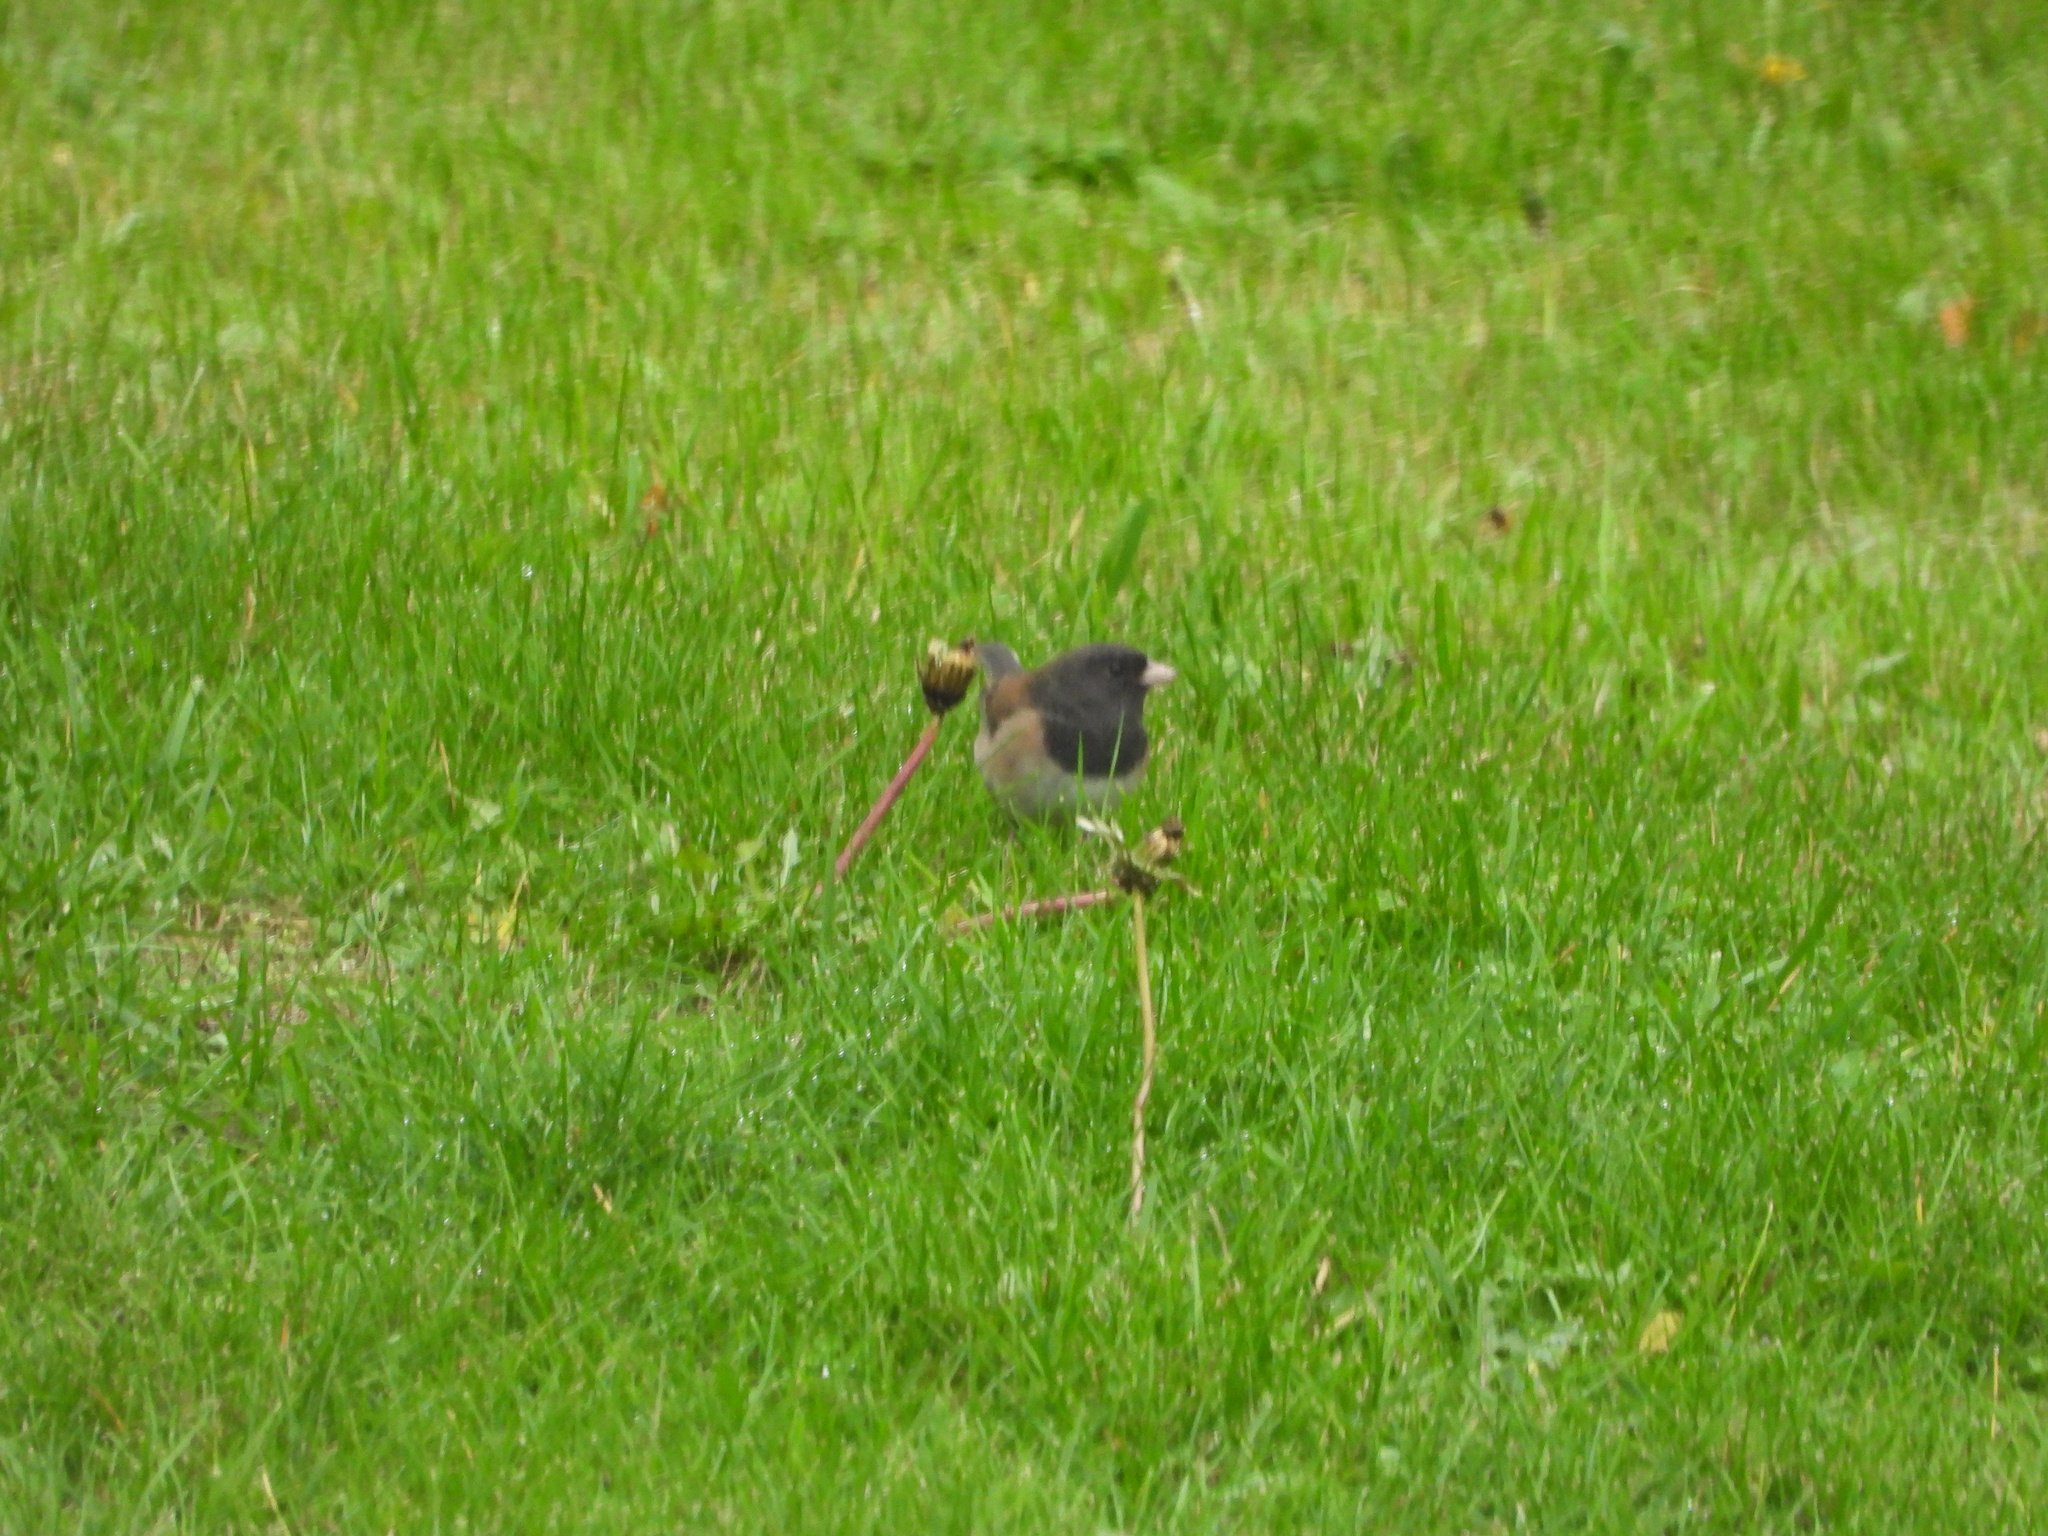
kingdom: Animalia
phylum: Chordata
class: Aves
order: Passeriformes
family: Passerellidae
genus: Junco
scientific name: Junco hyemalis
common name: Dark-eyed junco
